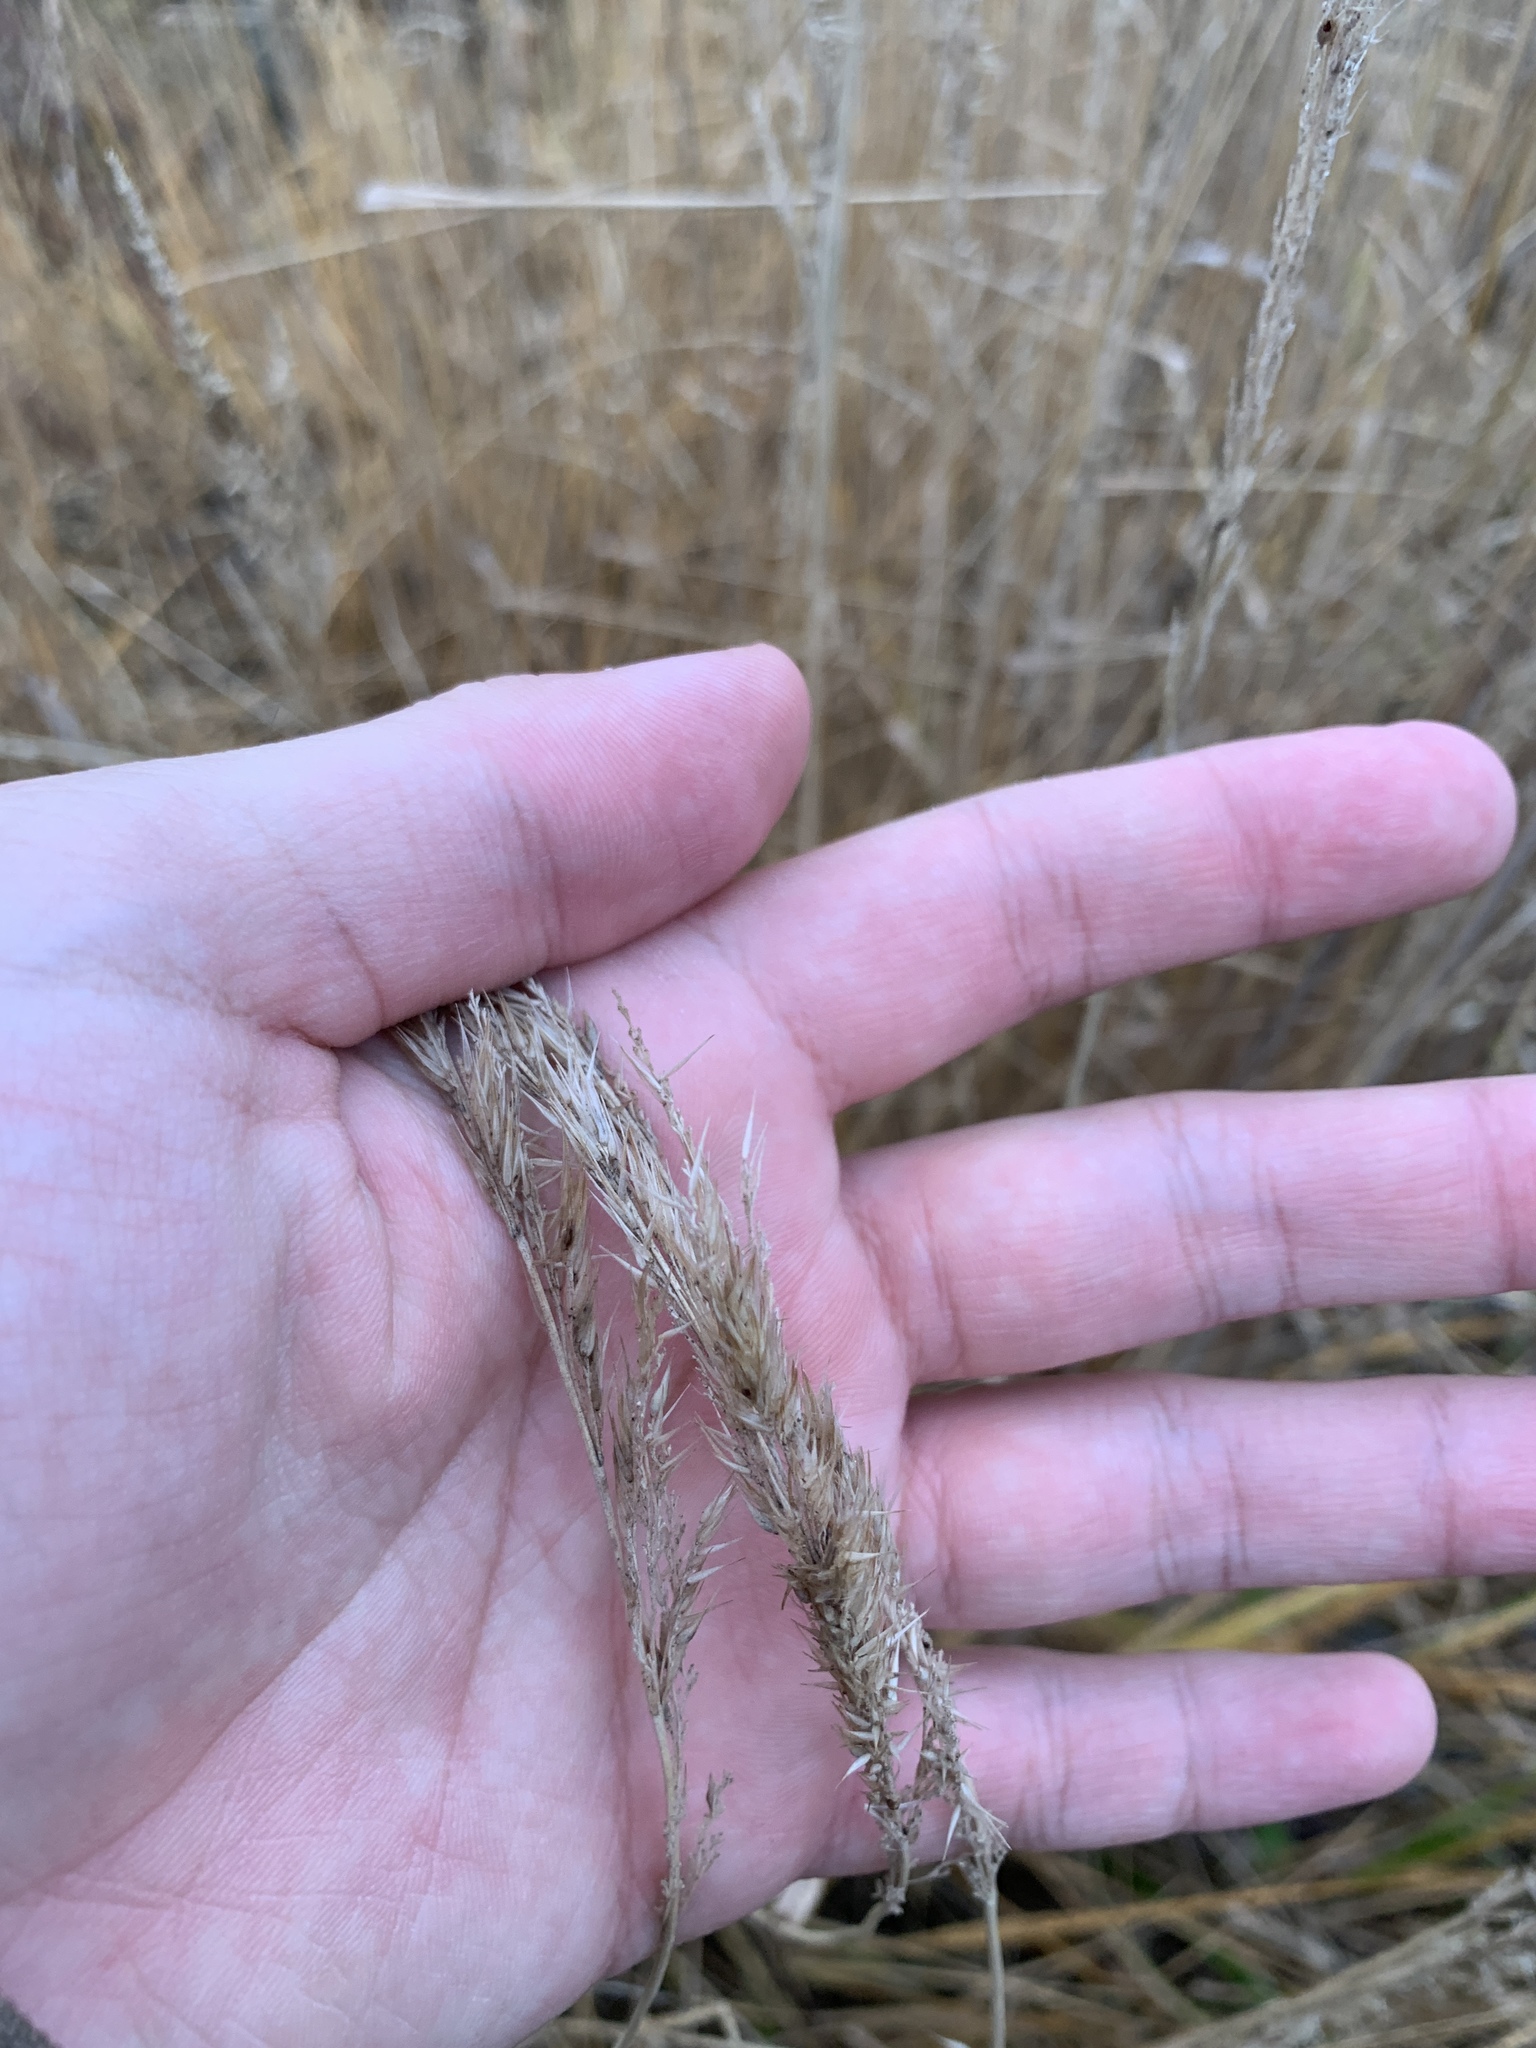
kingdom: Plantae
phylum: Tracheophyta
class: Liliopsida
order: Poales
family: Poaceae
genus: Calamagrostis
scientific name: Calamagrostis epigejos
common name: Wood small-reed
